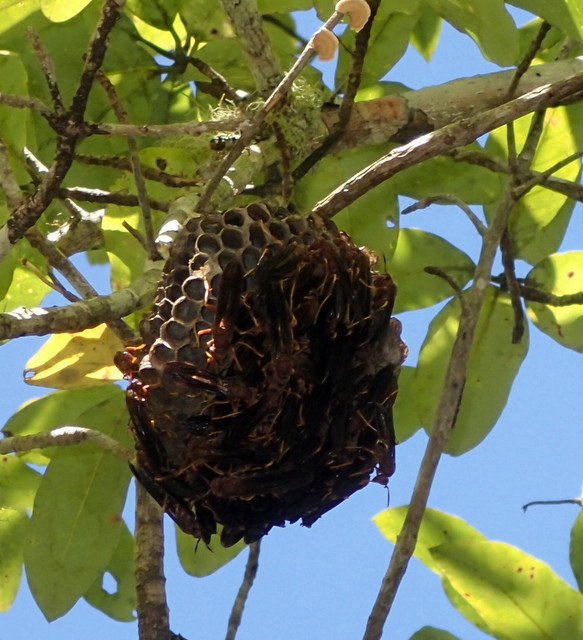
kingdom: Animalia
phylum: Arthropoda
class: Insecta
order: Hymenoptera
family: Eumenidae
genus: Polistes
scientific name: Polistes annularis
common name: Ringed paper wasp
